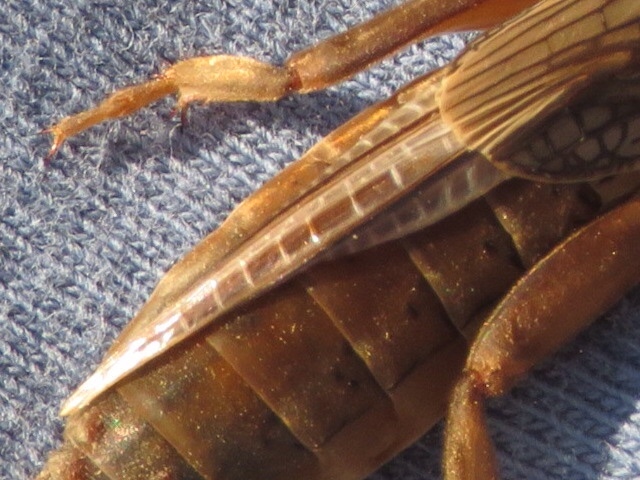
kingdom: Animalia
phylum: Arthropoda
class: Insecta
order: Orthoptera
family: Gryllotalpidae
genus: Neocurtilla
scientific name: Neocurtilla hexadactyla
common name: Northern mole cricket
